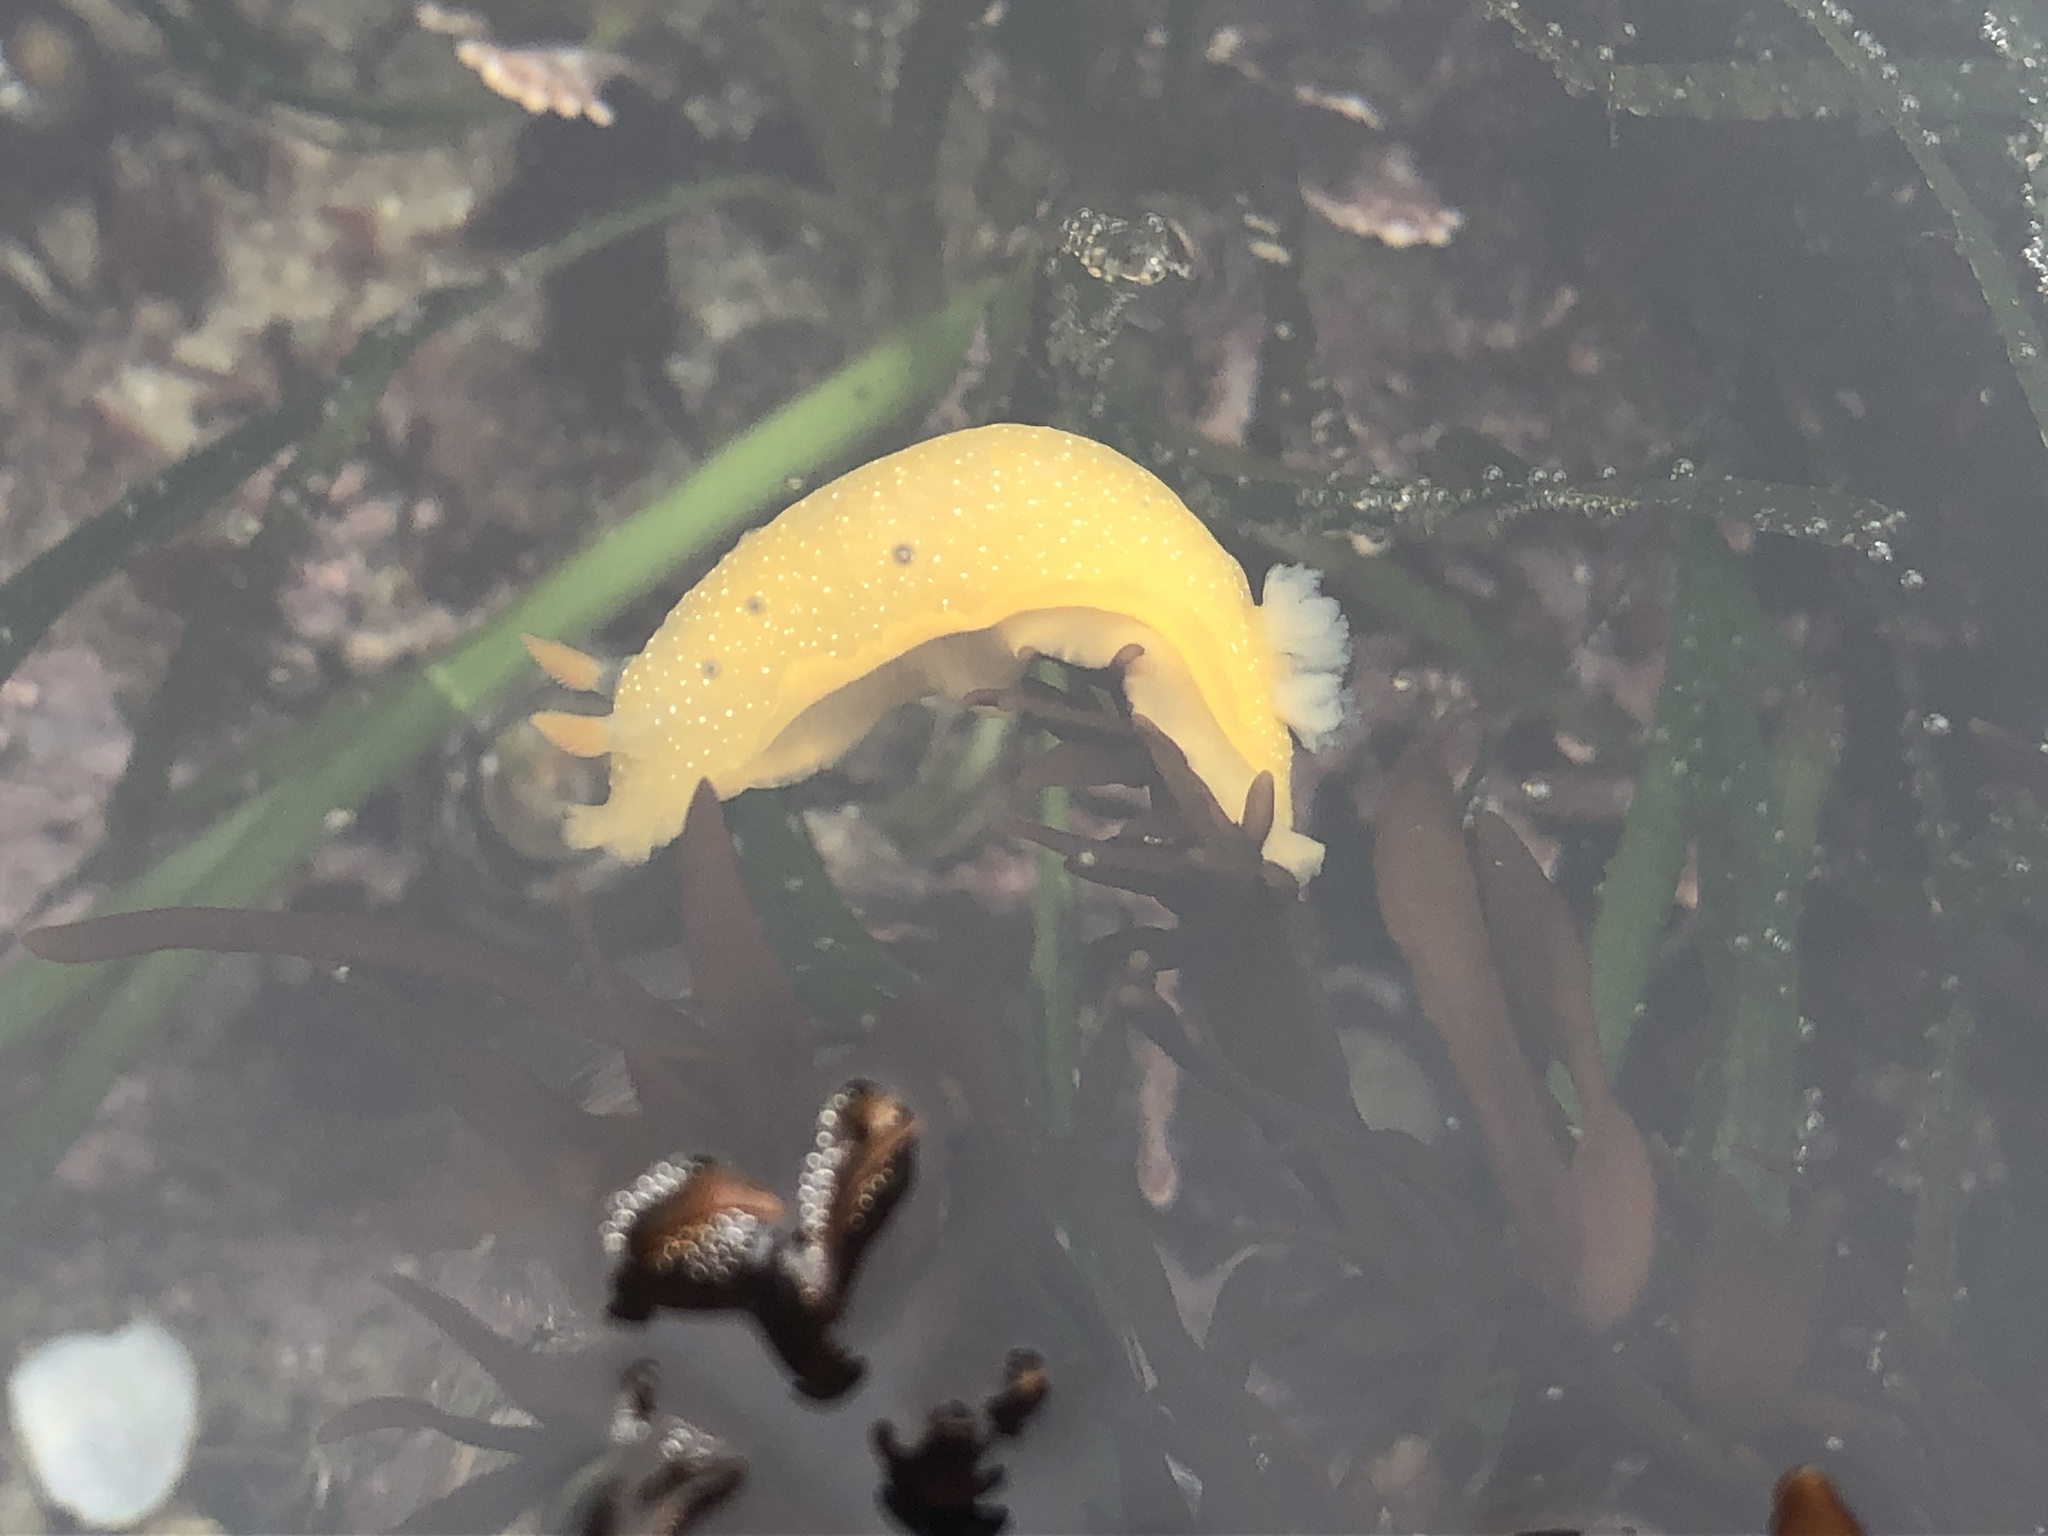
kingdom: Animalia
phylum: Mollusca
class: Gastropoda
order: Nudibranchia
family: Dendrodorididae
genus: Doriopsilla
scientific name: Doriopsilla fulva
